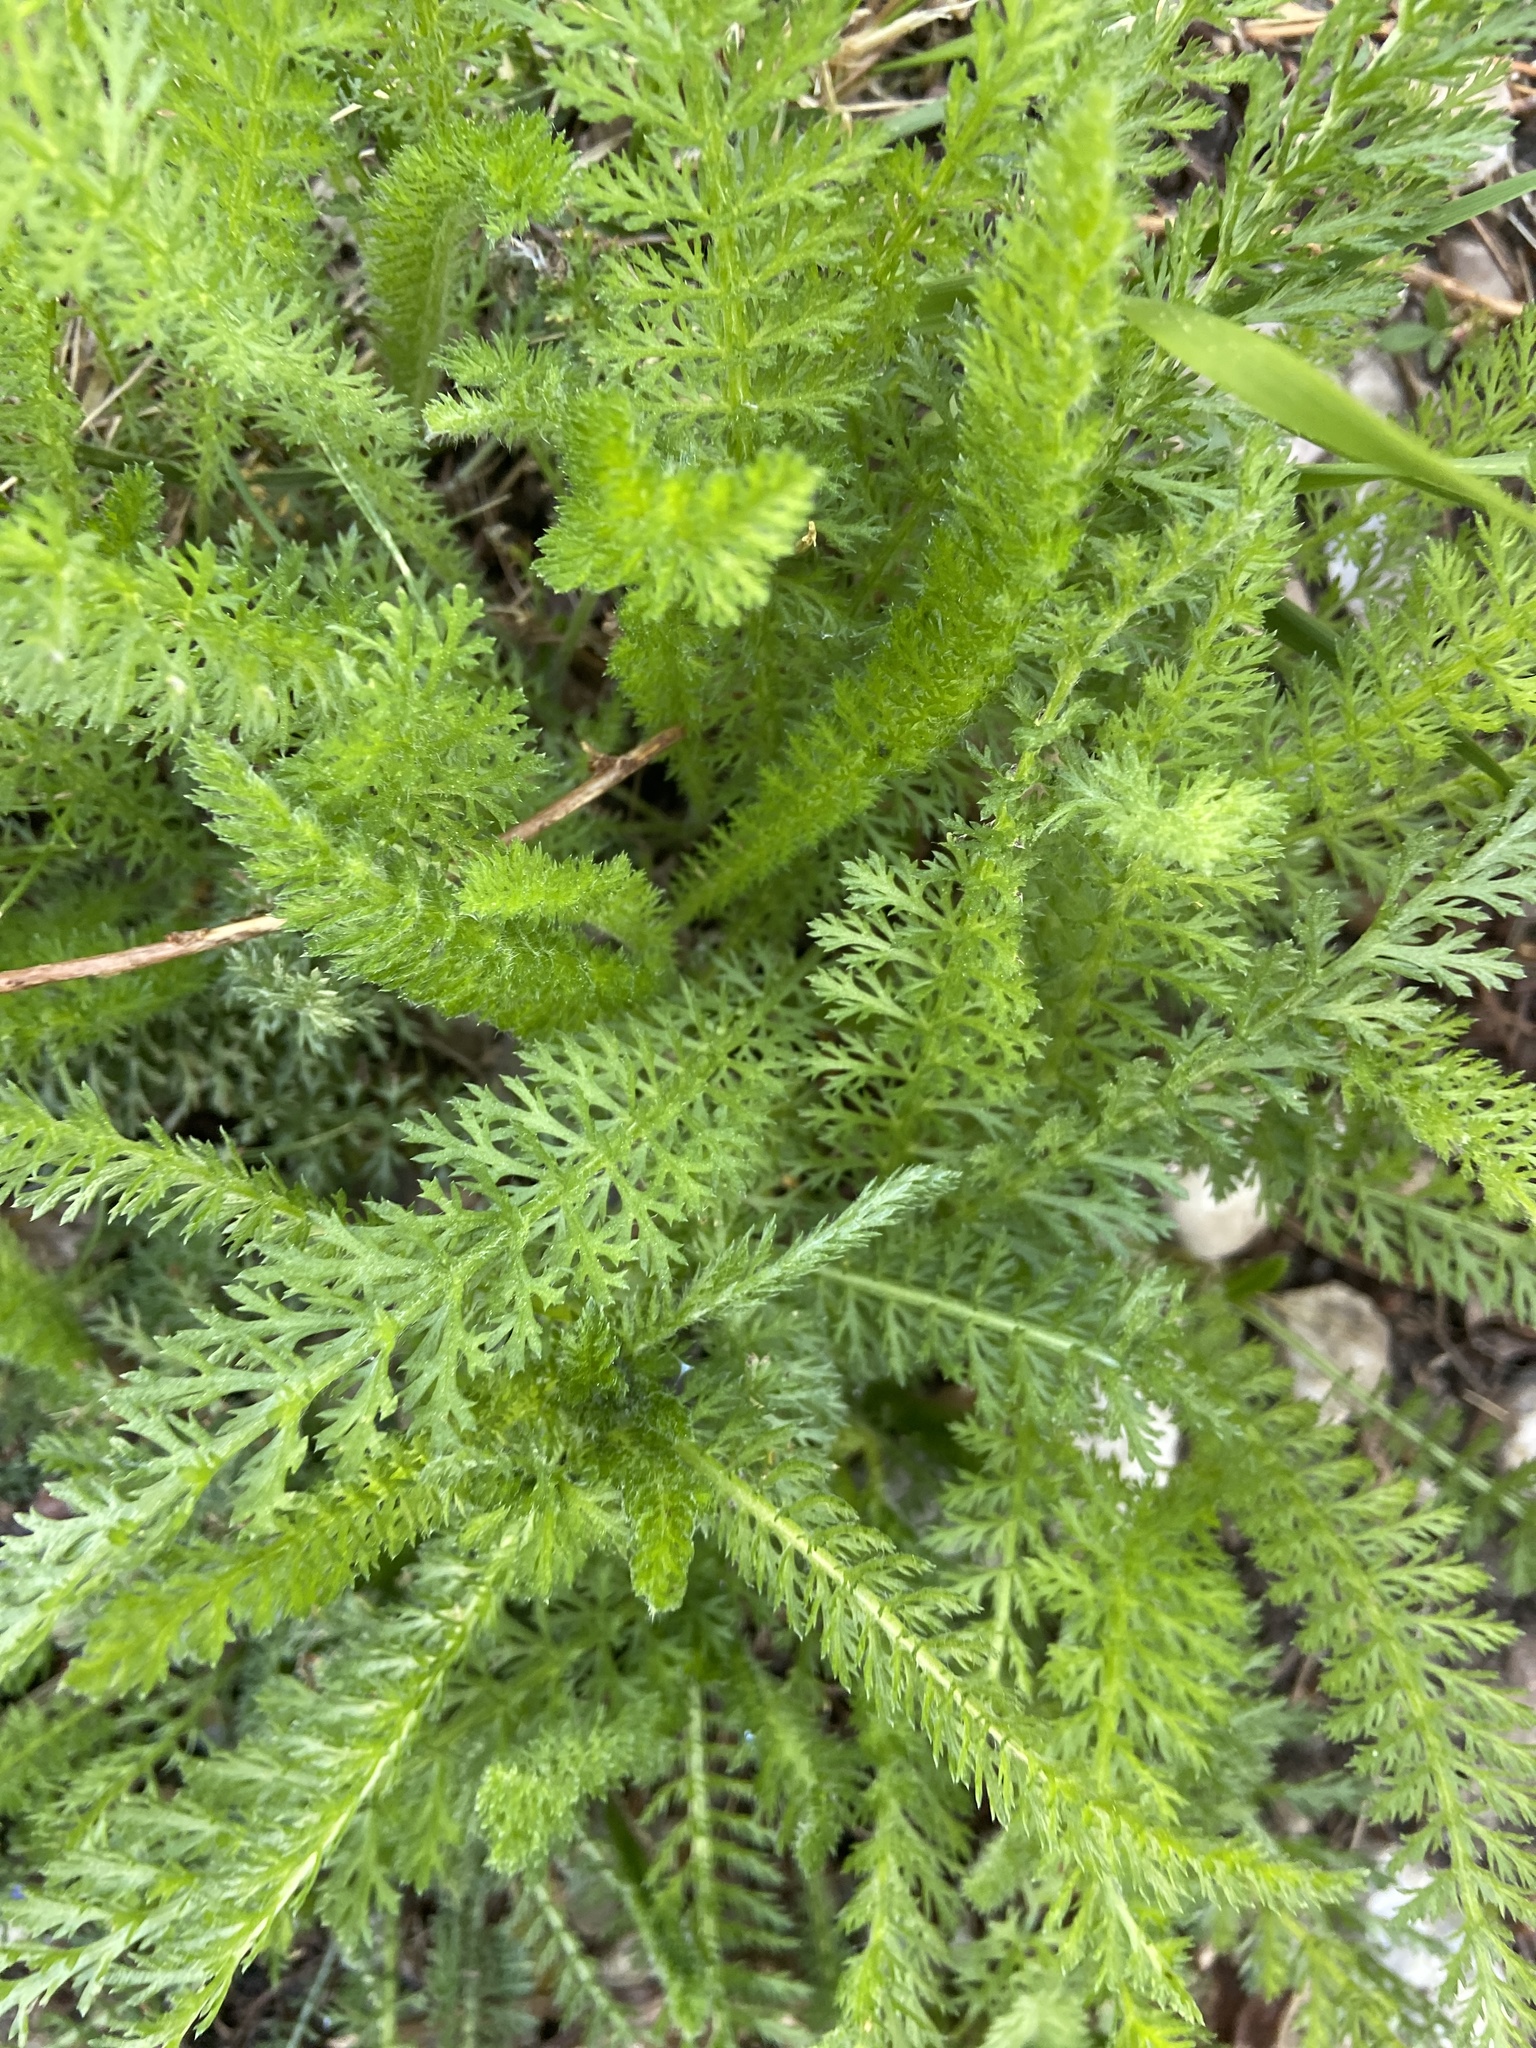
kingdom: Plantae
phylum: Tracheophyta
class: Magnoliopsida
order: Asterales
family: Asteraceae
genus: Achillea
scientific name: Achillea millefolium
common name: Yarrow
